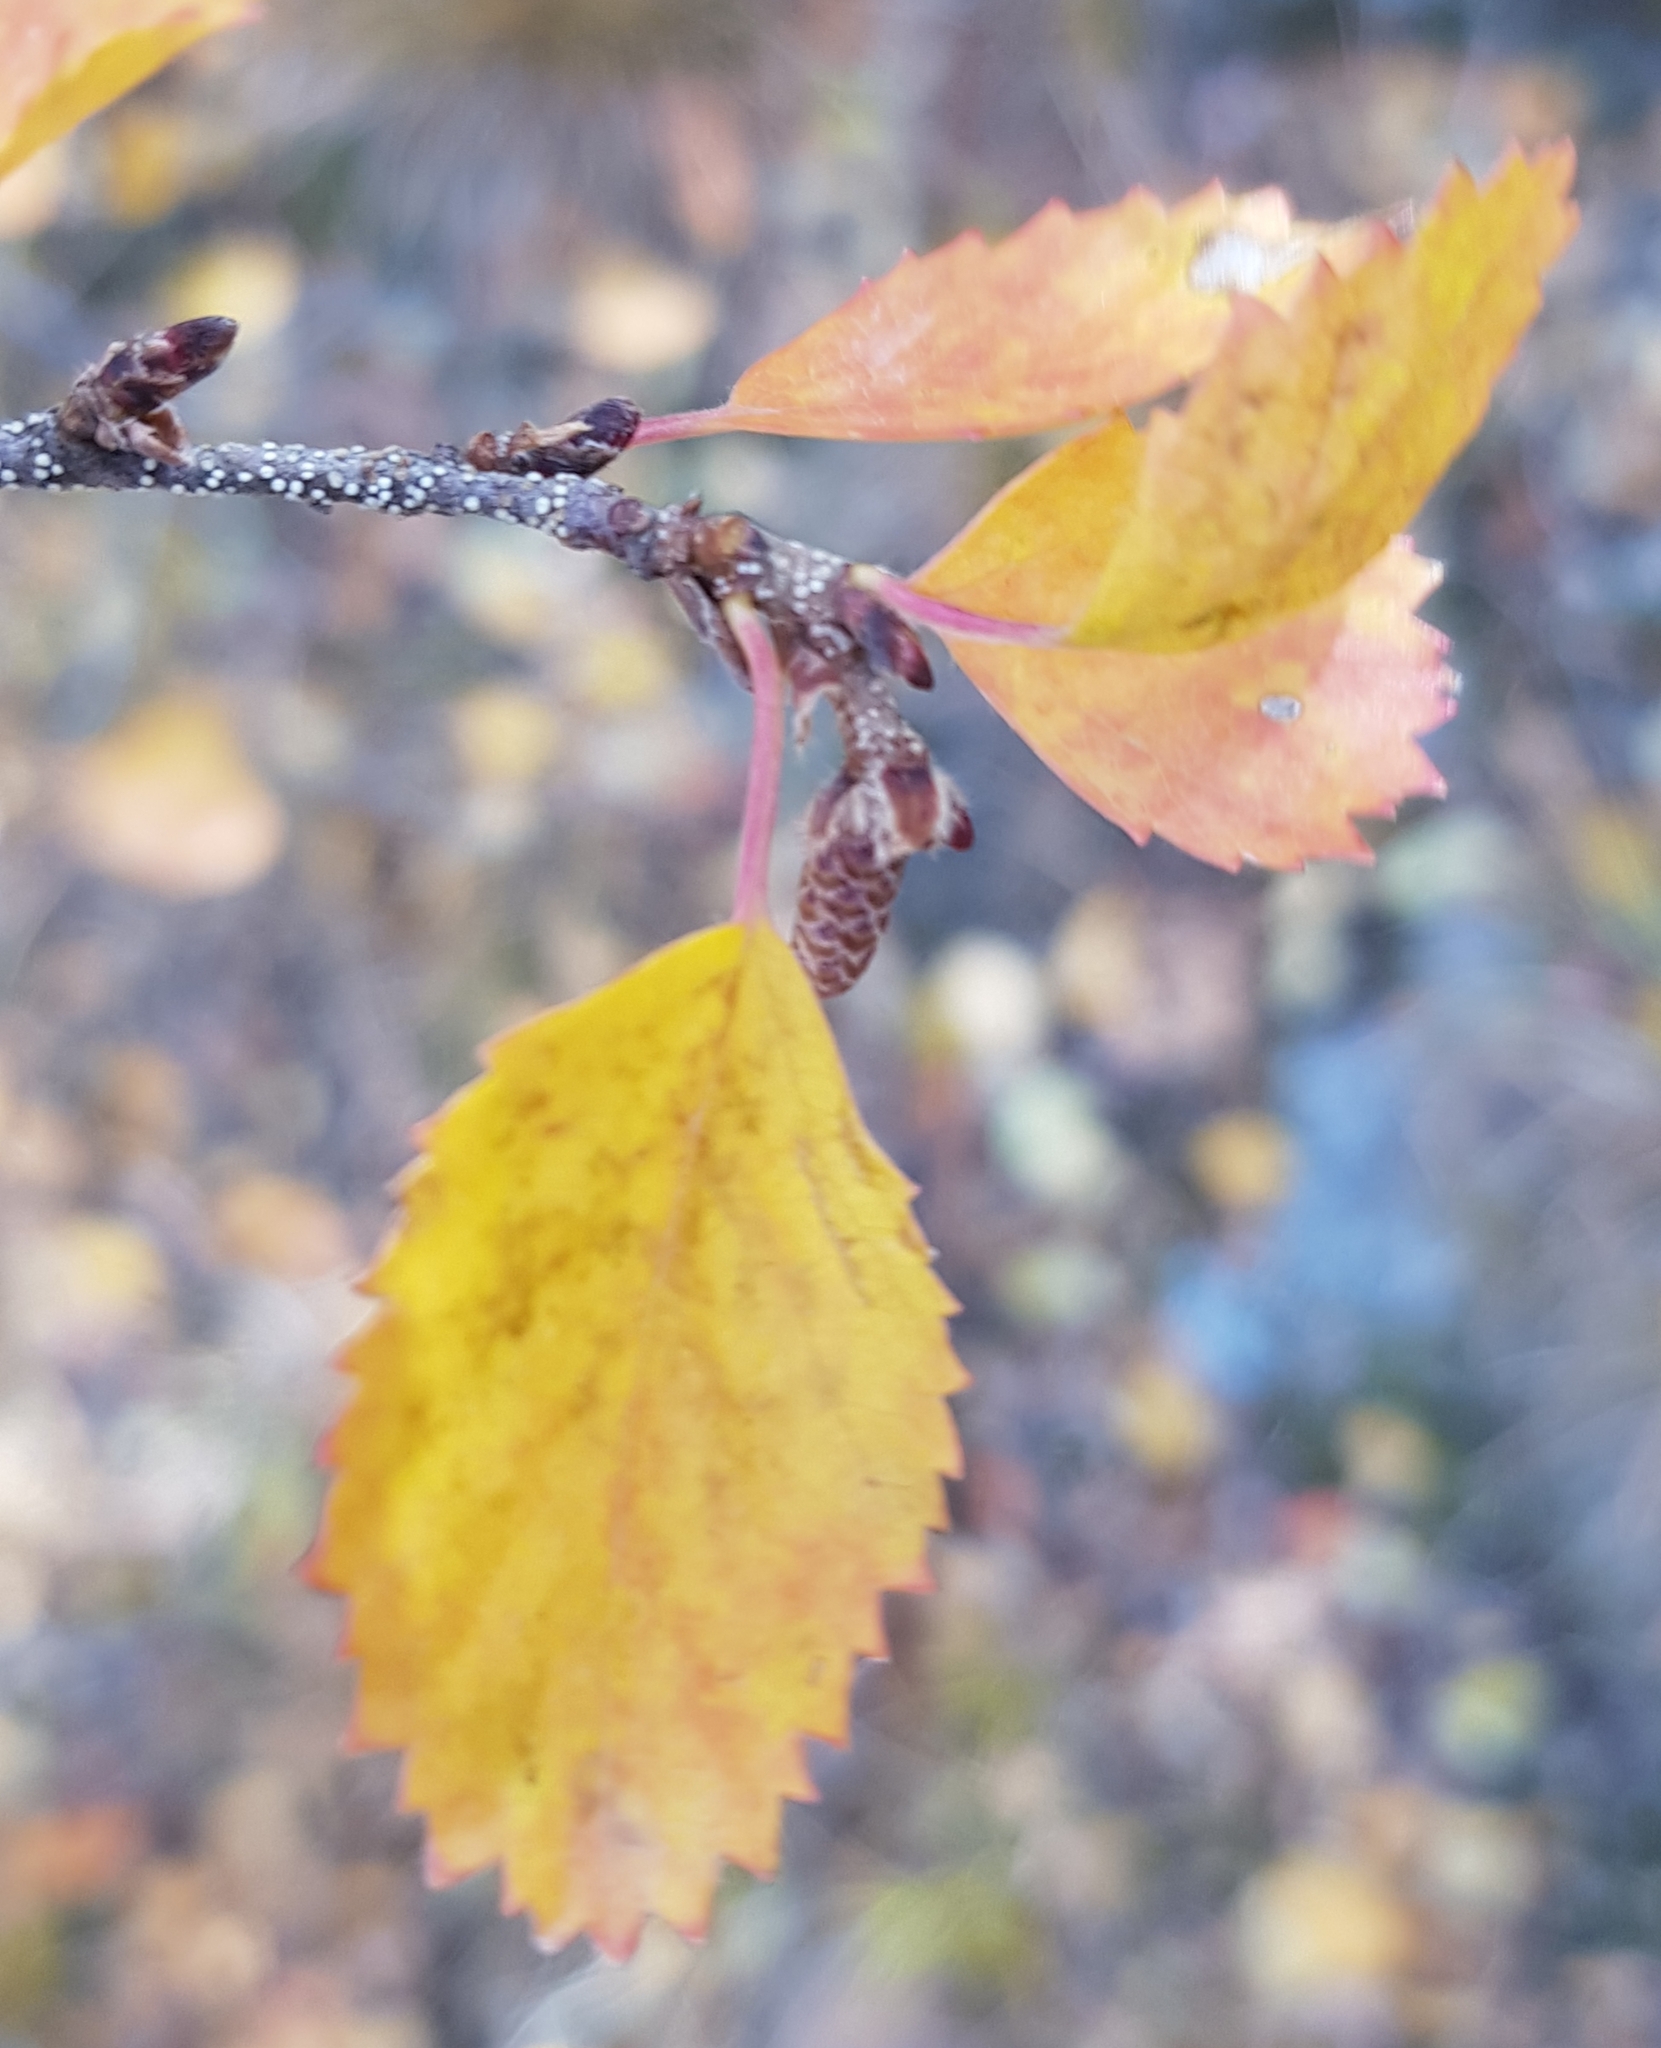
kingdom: Plantae
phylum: Tracheophyta
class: Magnoliopsida
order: Fagales
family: Betulaceae
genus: Betula
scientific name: Betula glandulosa
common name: Dwarf birch
